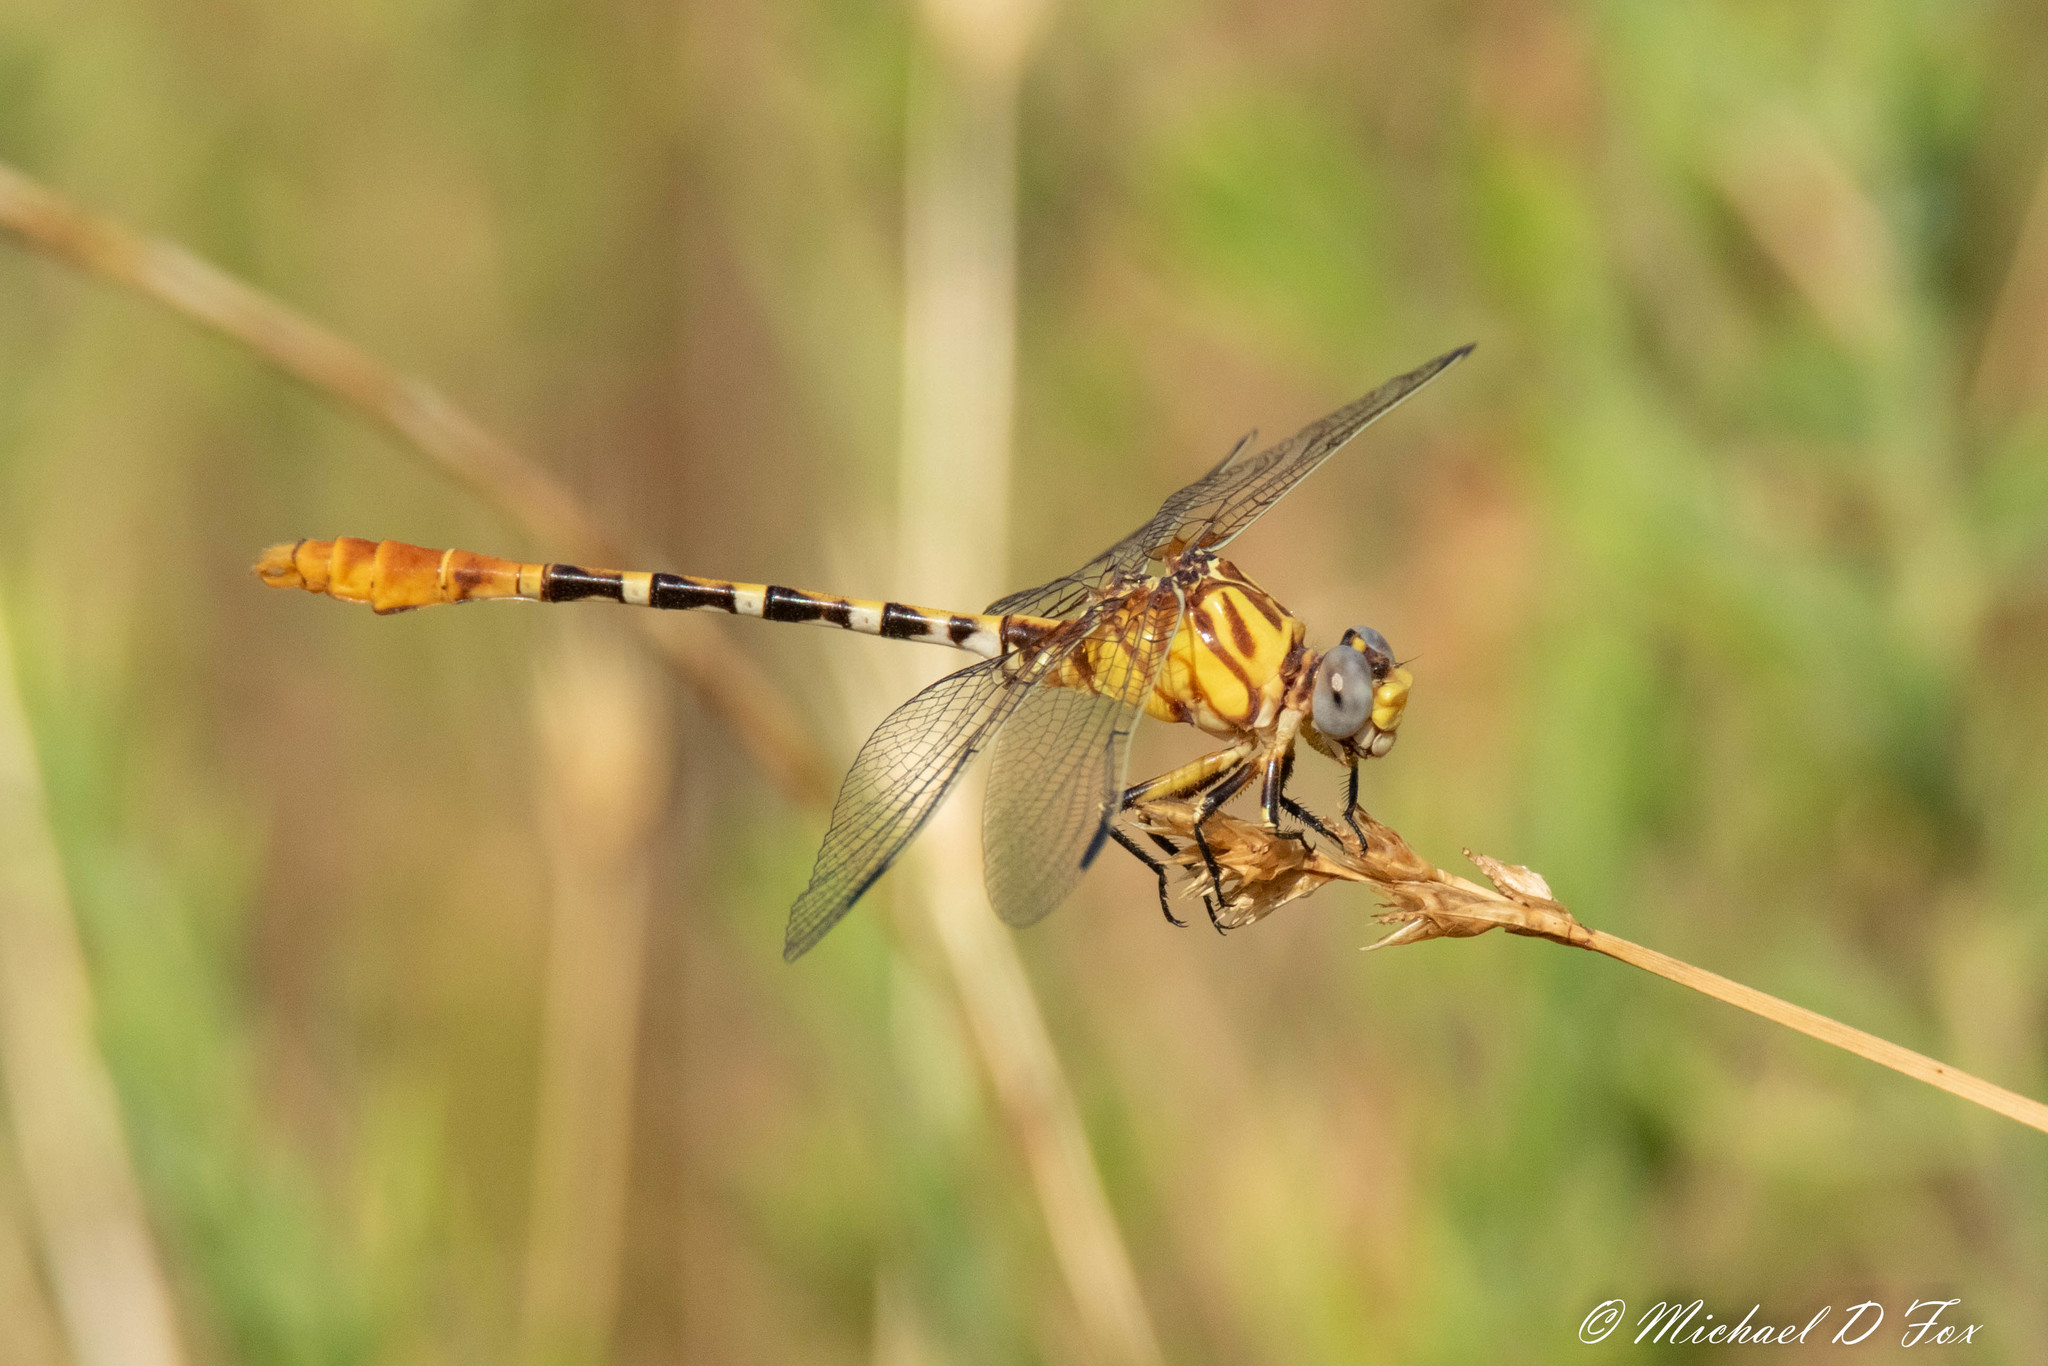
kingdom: Animalia
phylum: Arthropoda
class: Insecta
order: Odonata
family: Gomphidae
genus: Erpetogomphus
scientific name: Erpetogomphus designatus
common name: Eastern ringtail
